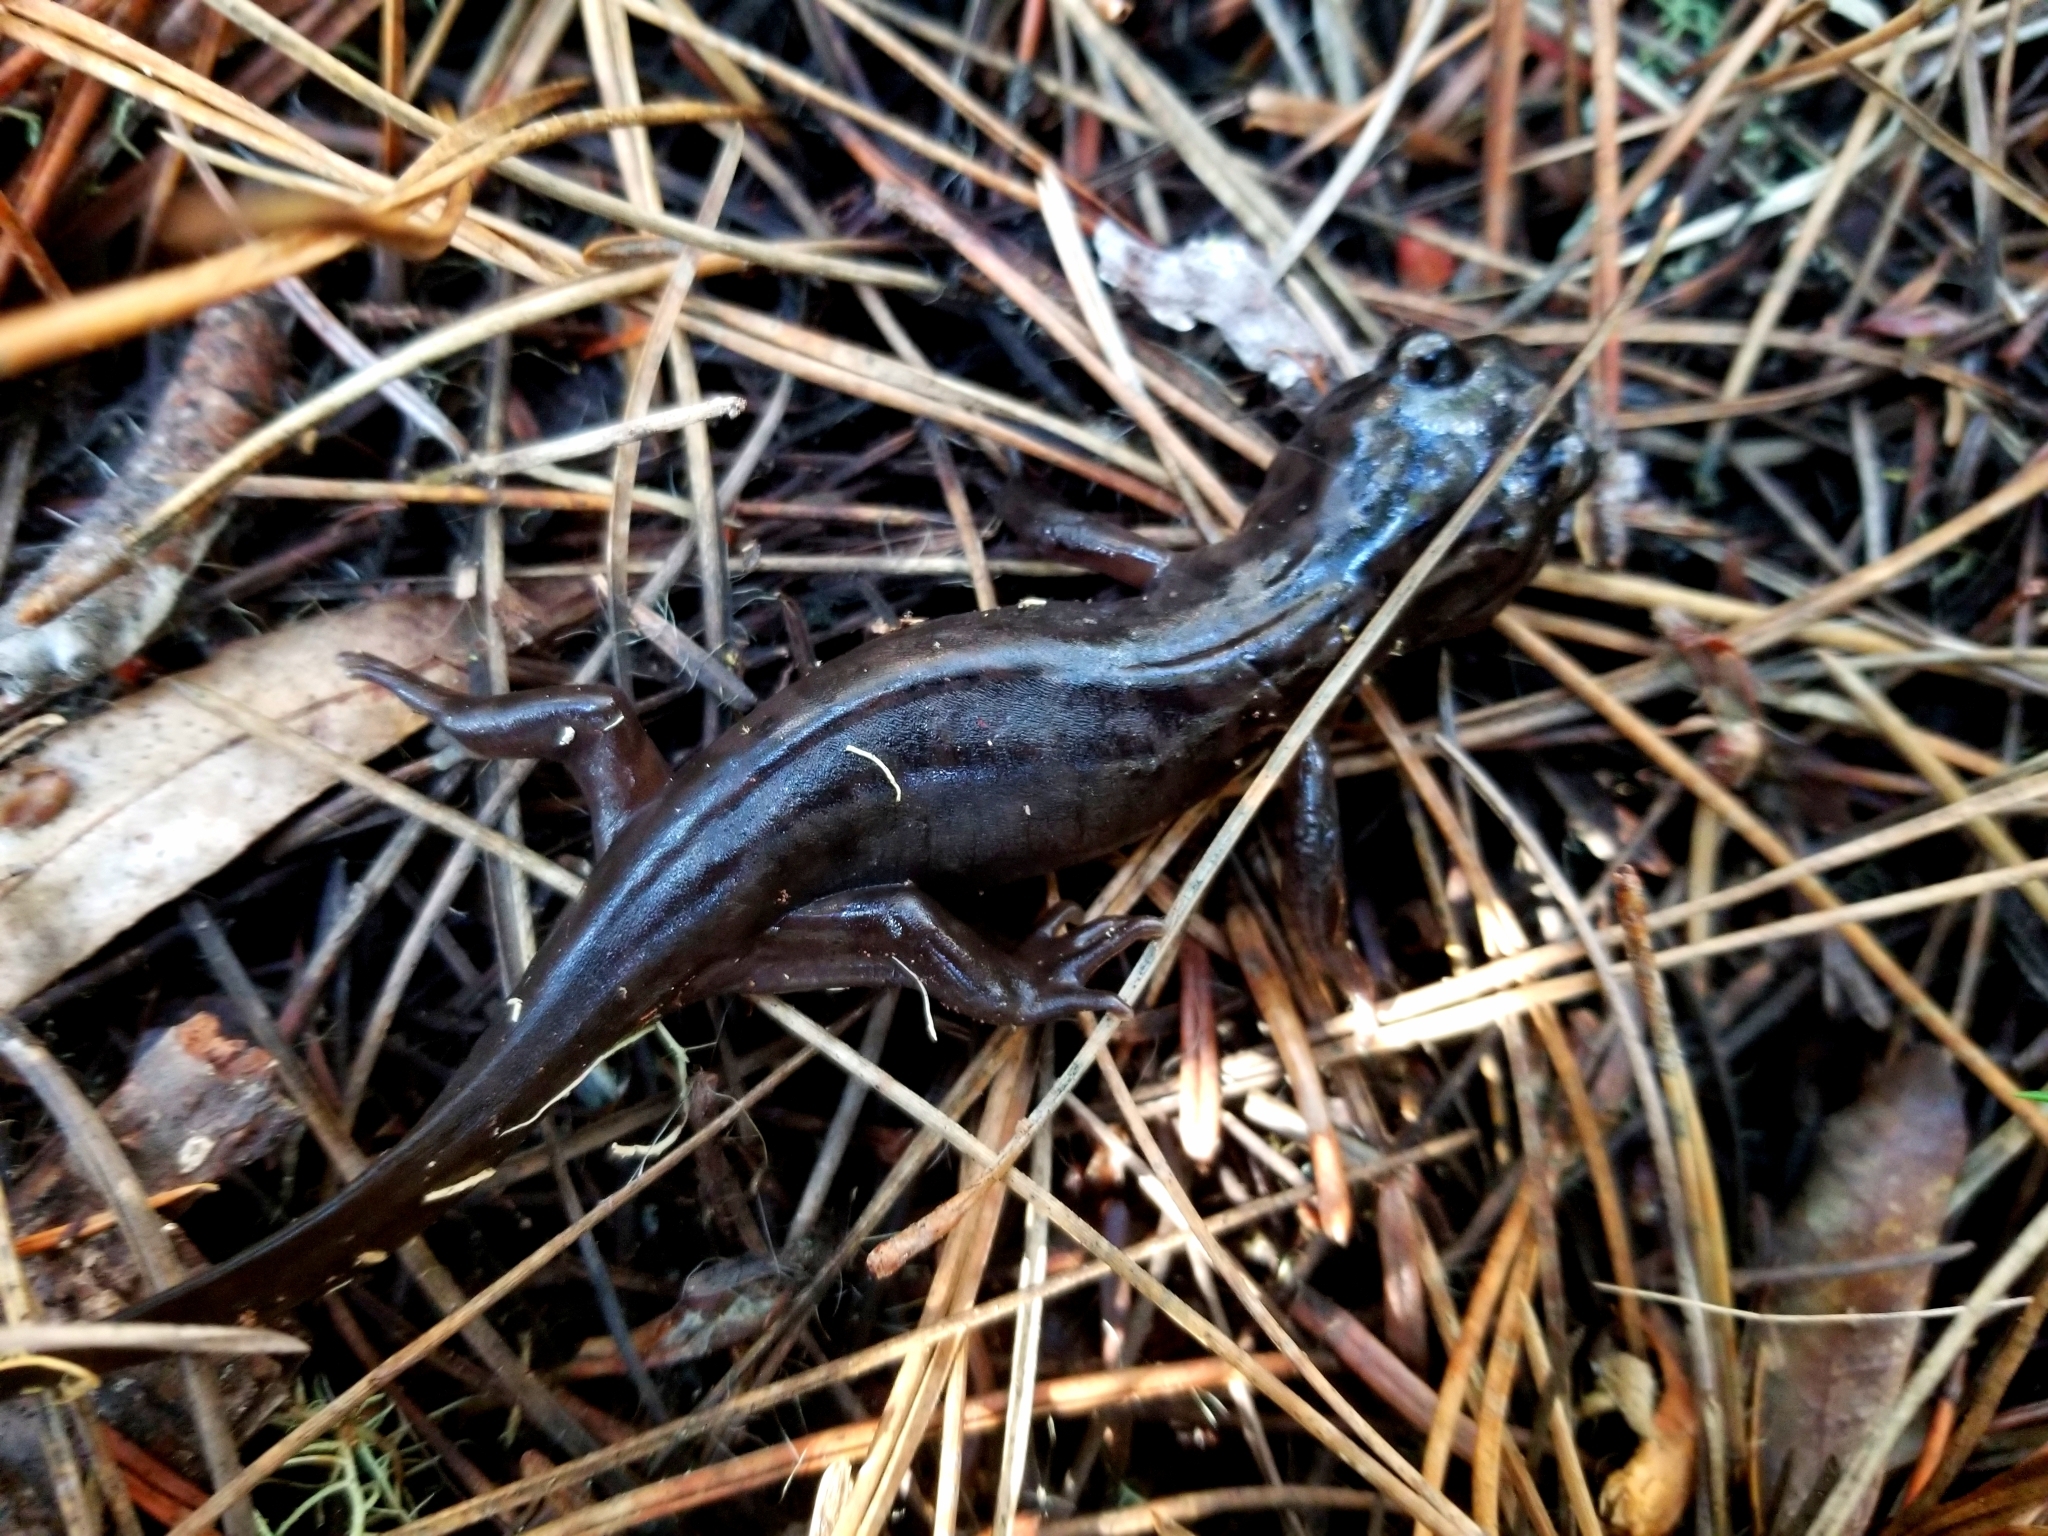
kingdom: Animalia
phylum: Chordata
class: Amphibia
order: Caudata
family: Ambystomatidae
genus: Dicamptodon
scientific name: Dicamptodon ensatus
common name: California giant salamander
